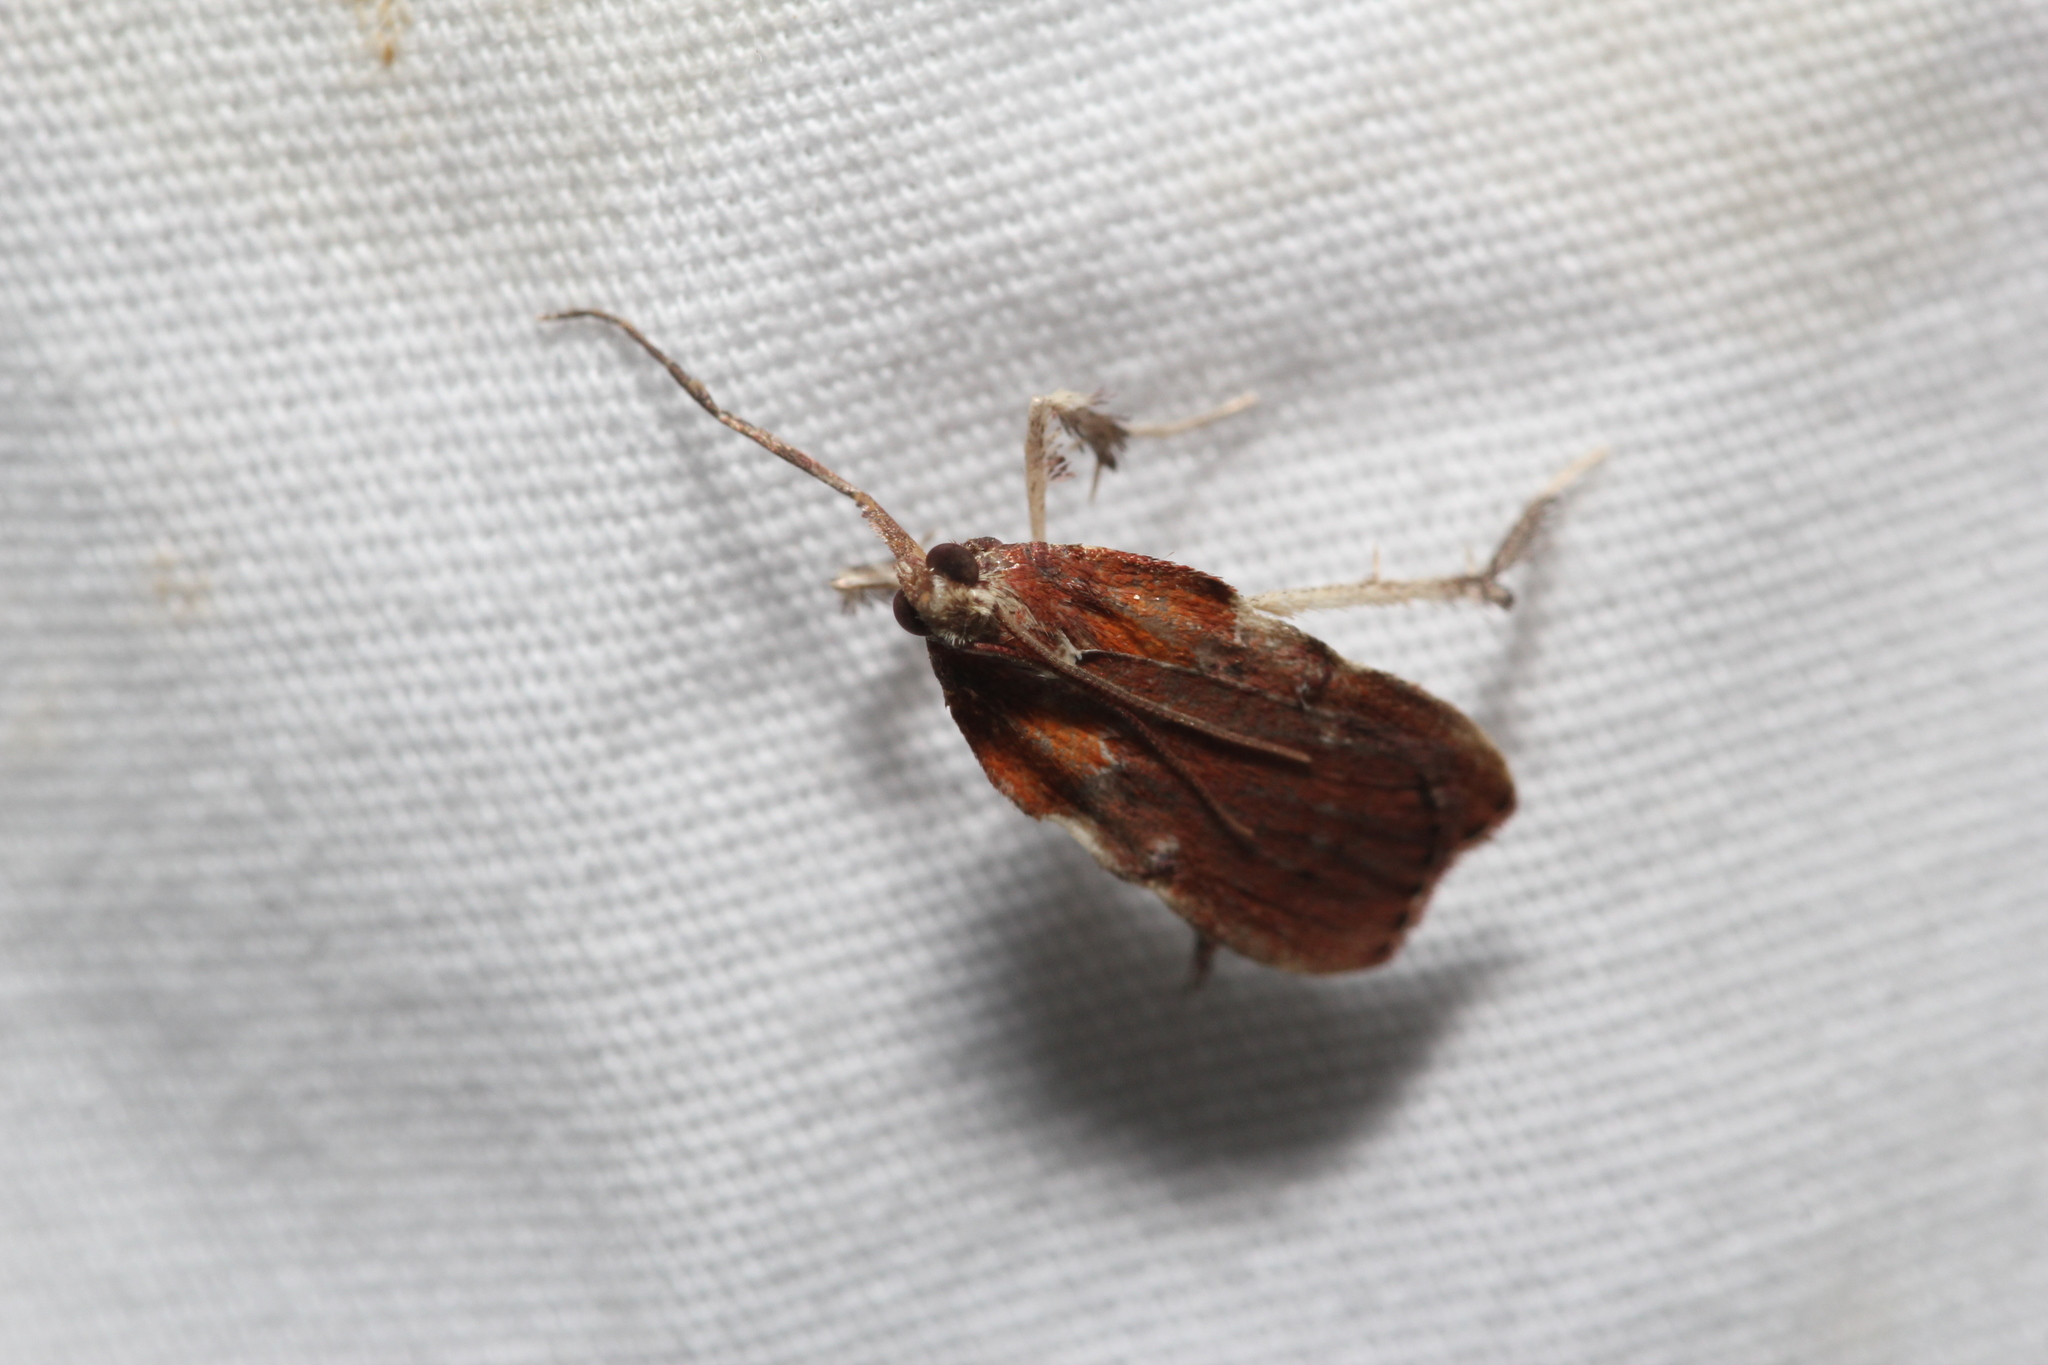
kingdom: Animalia
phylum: Arthropoda
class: Insecta
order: Lepidoptera
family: Pyralidae
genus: Galasa
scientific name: Galasa nigrinodis
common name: Boxwood leaftier moth
